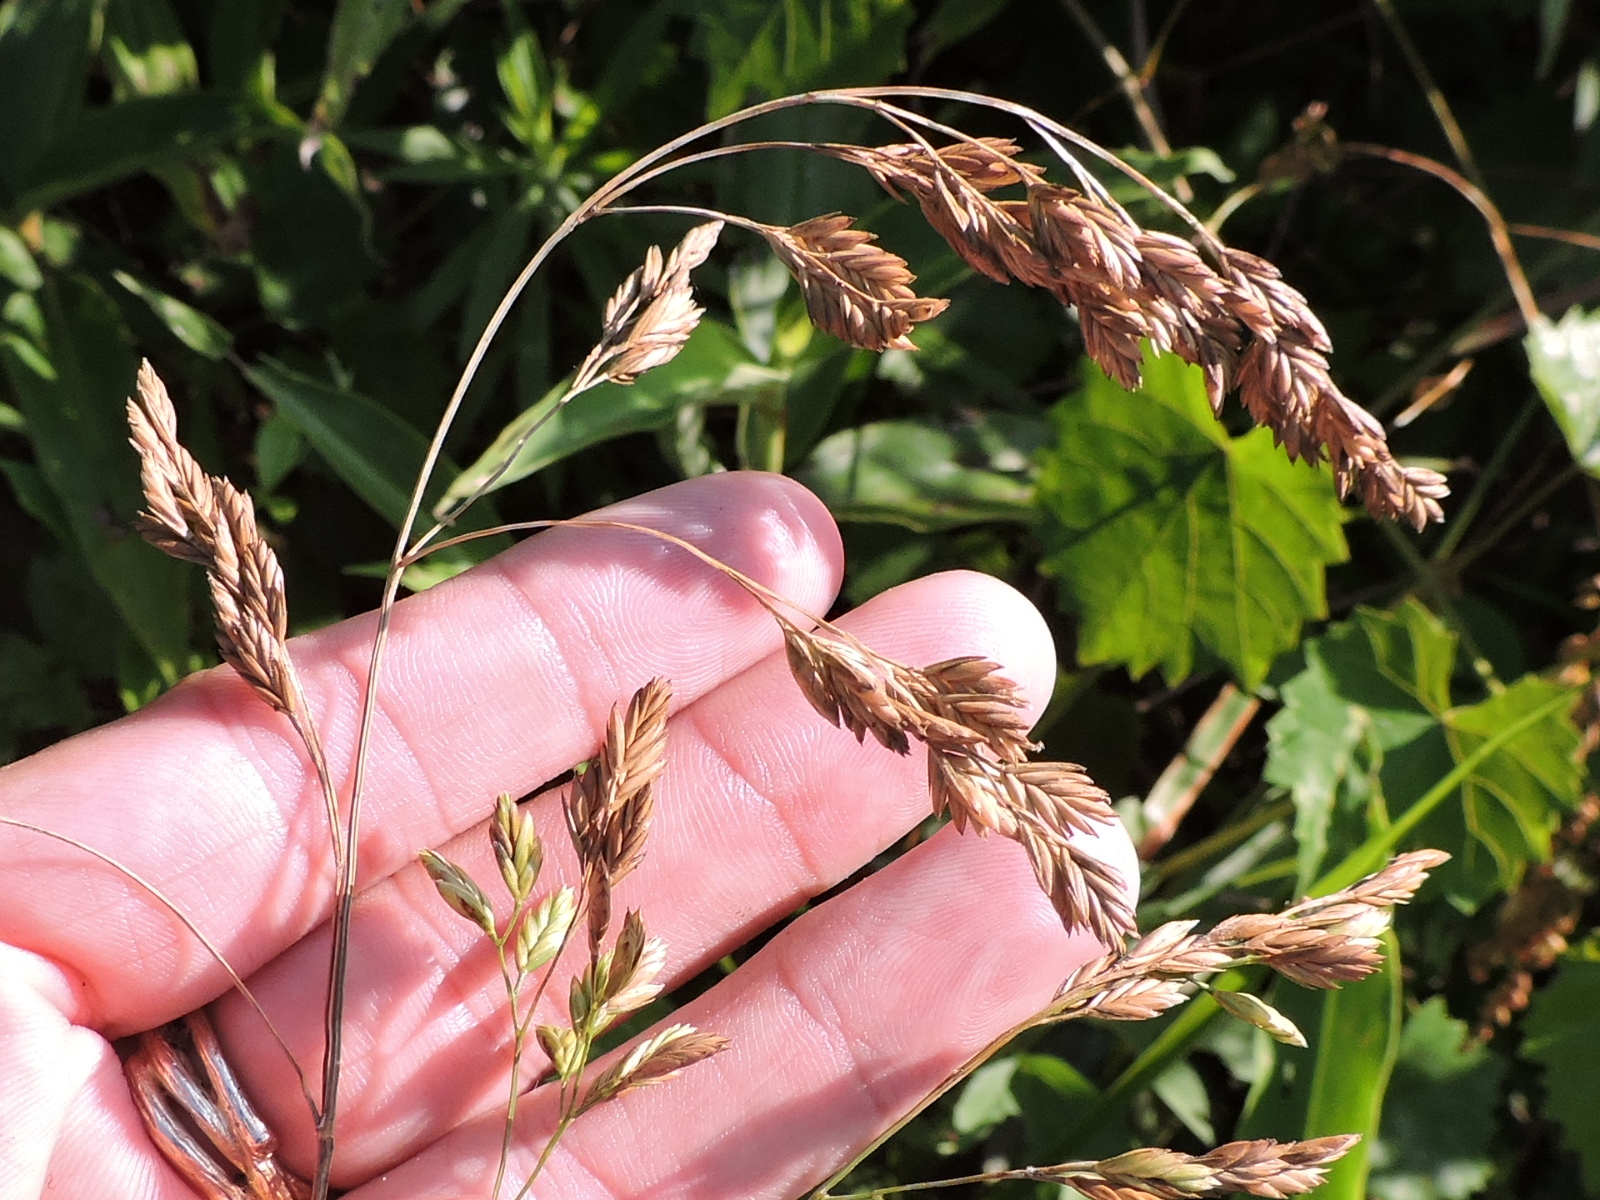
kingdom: Plantae
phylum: Tracheophyta
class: Liliopsida
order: Poales
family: Poaceae
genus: Festuca
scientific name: Festuca paradoxa
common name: Cluster fescue
